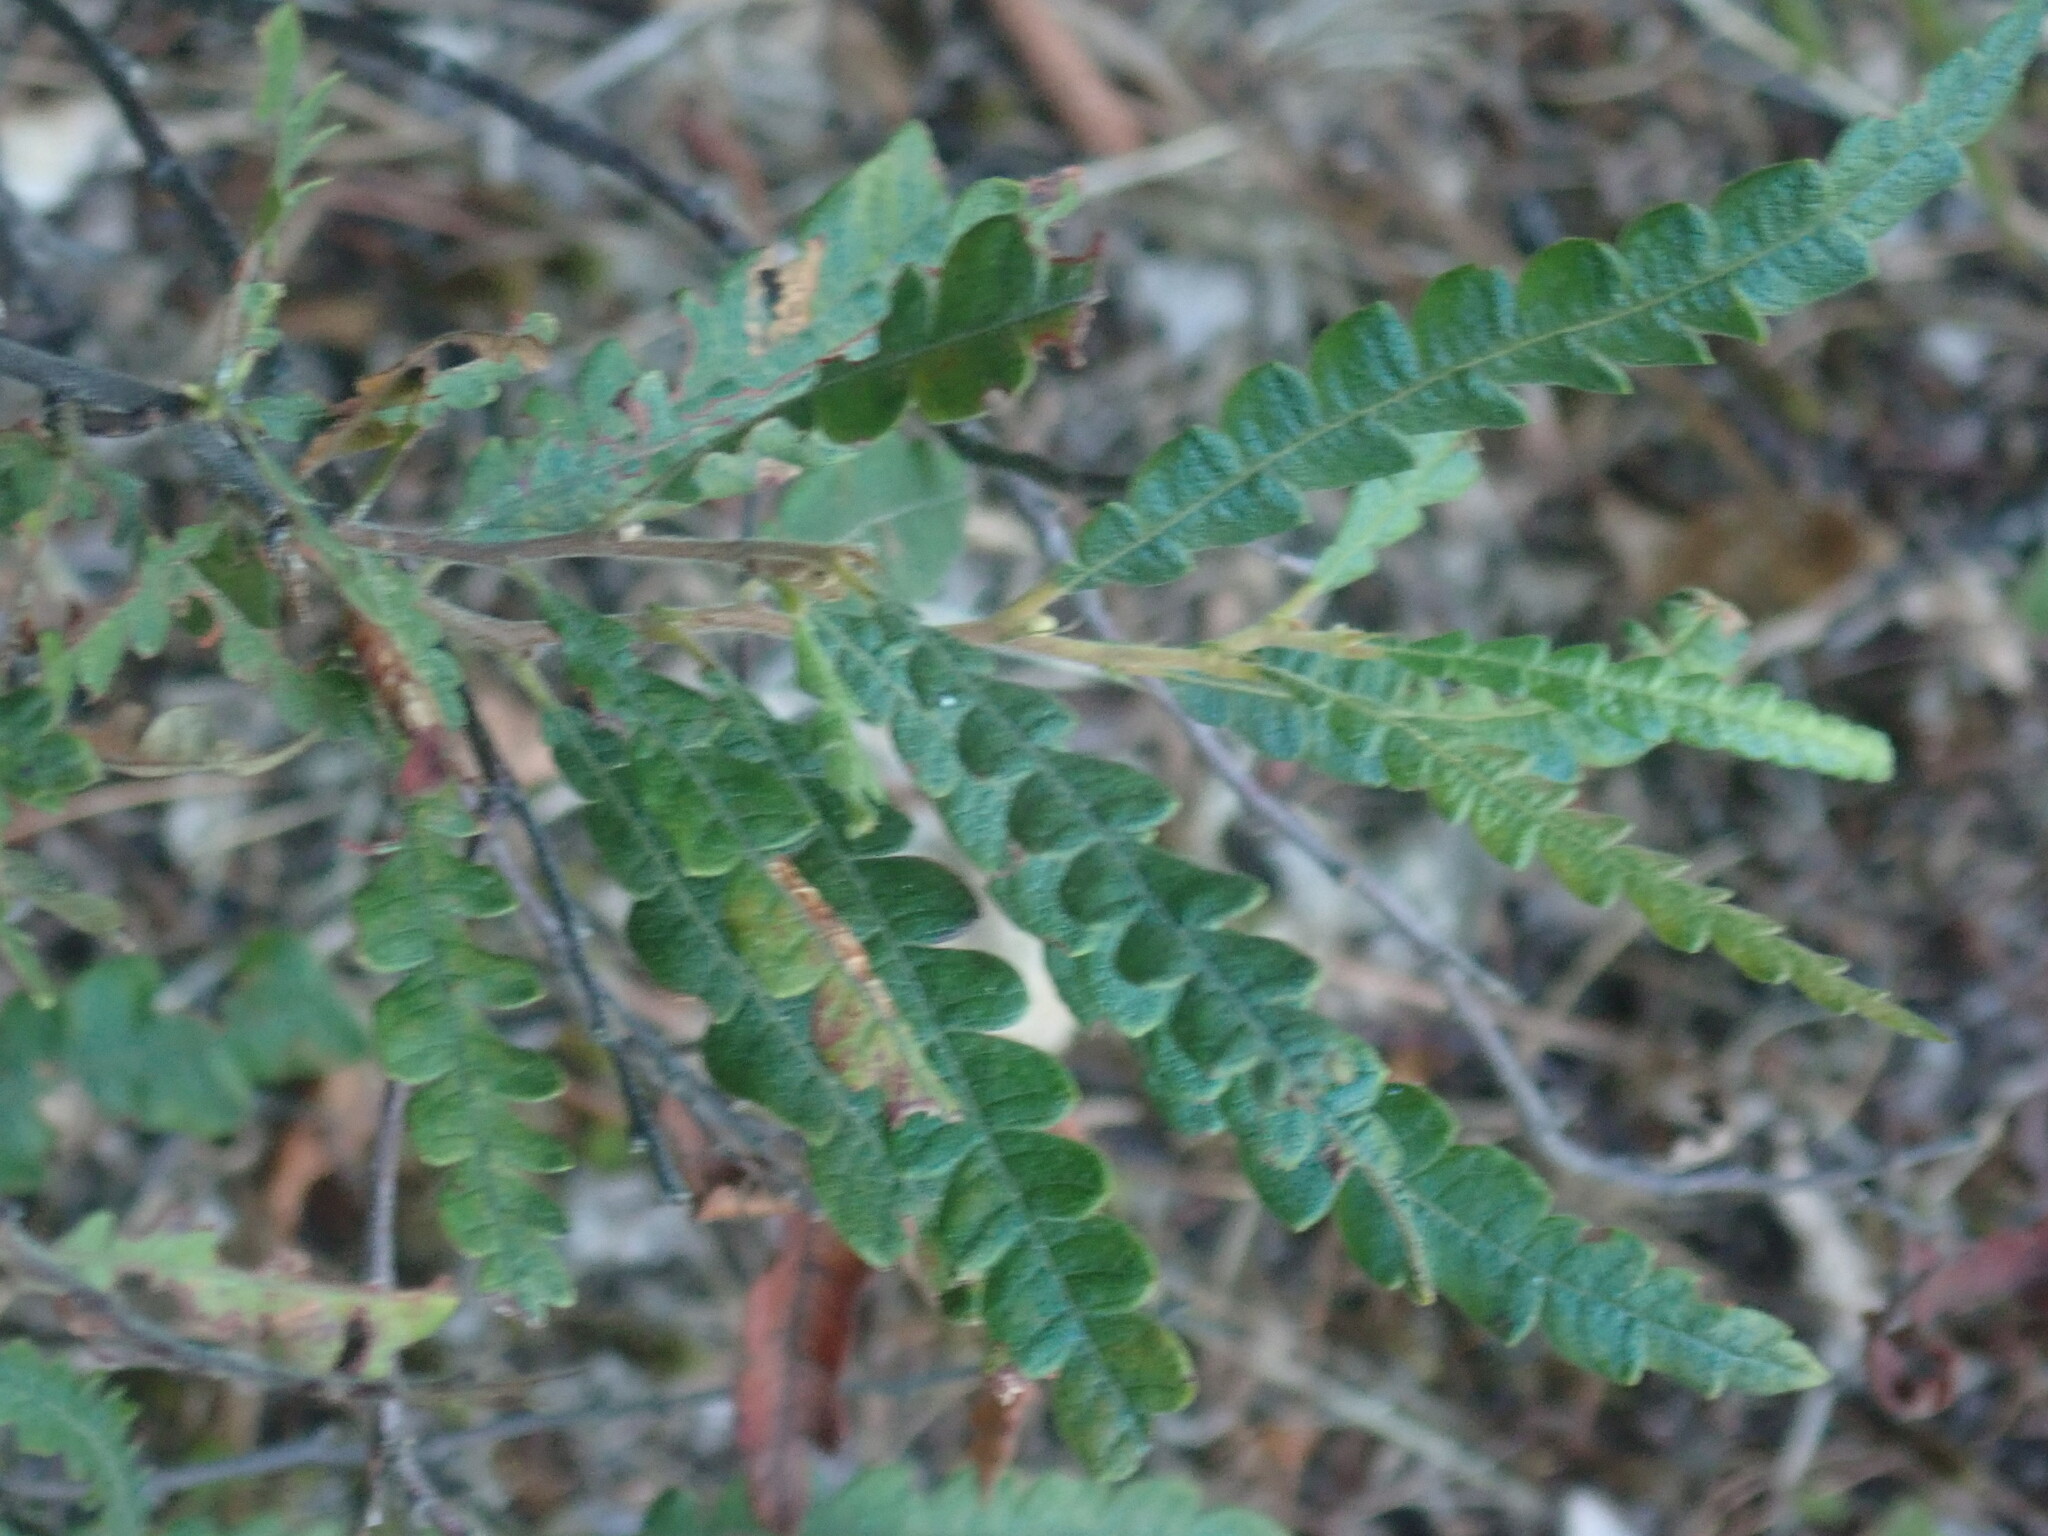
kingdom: Plantae
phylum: Tracheophyta
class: Magnoliopsida
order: Fagales
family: Myricaceae
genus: Comptonia
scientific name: Comptonia peregrina
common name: Sweet-fern
